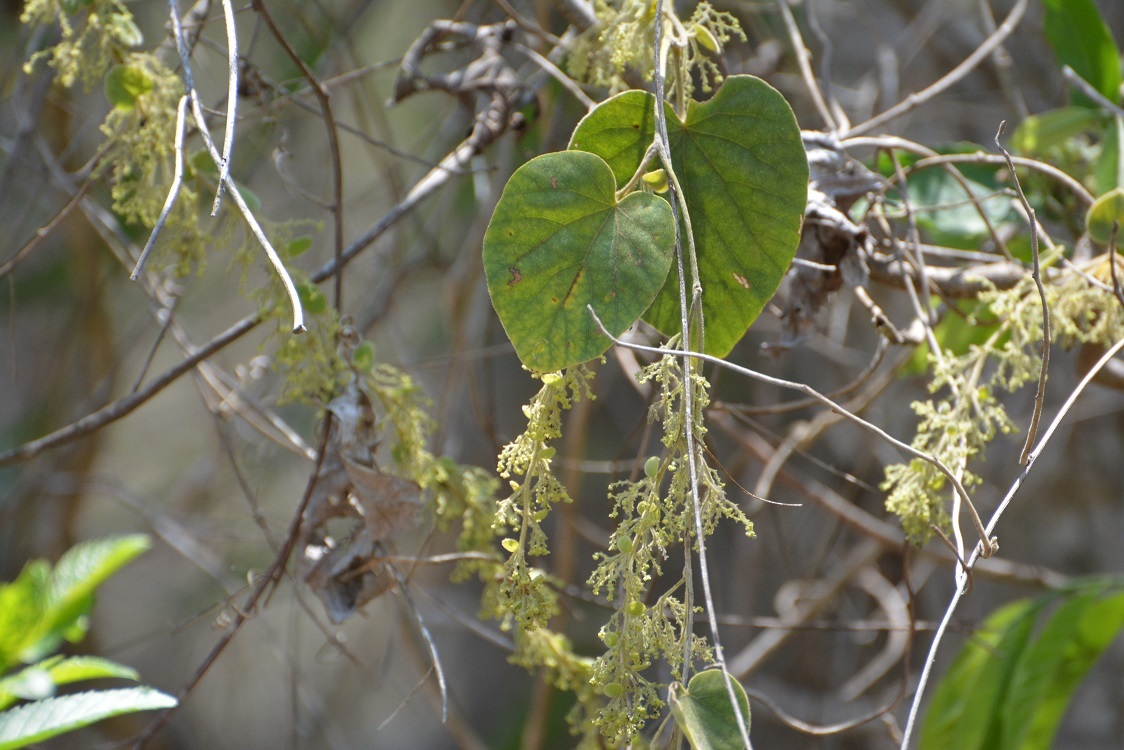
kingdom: Plantae
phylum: Tracheophyta
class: Magnoliopsida
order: Ranunculales
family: Menispermaceae
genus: Cissampelos
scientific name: Cissampelos pareira
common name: Velvetleaf
